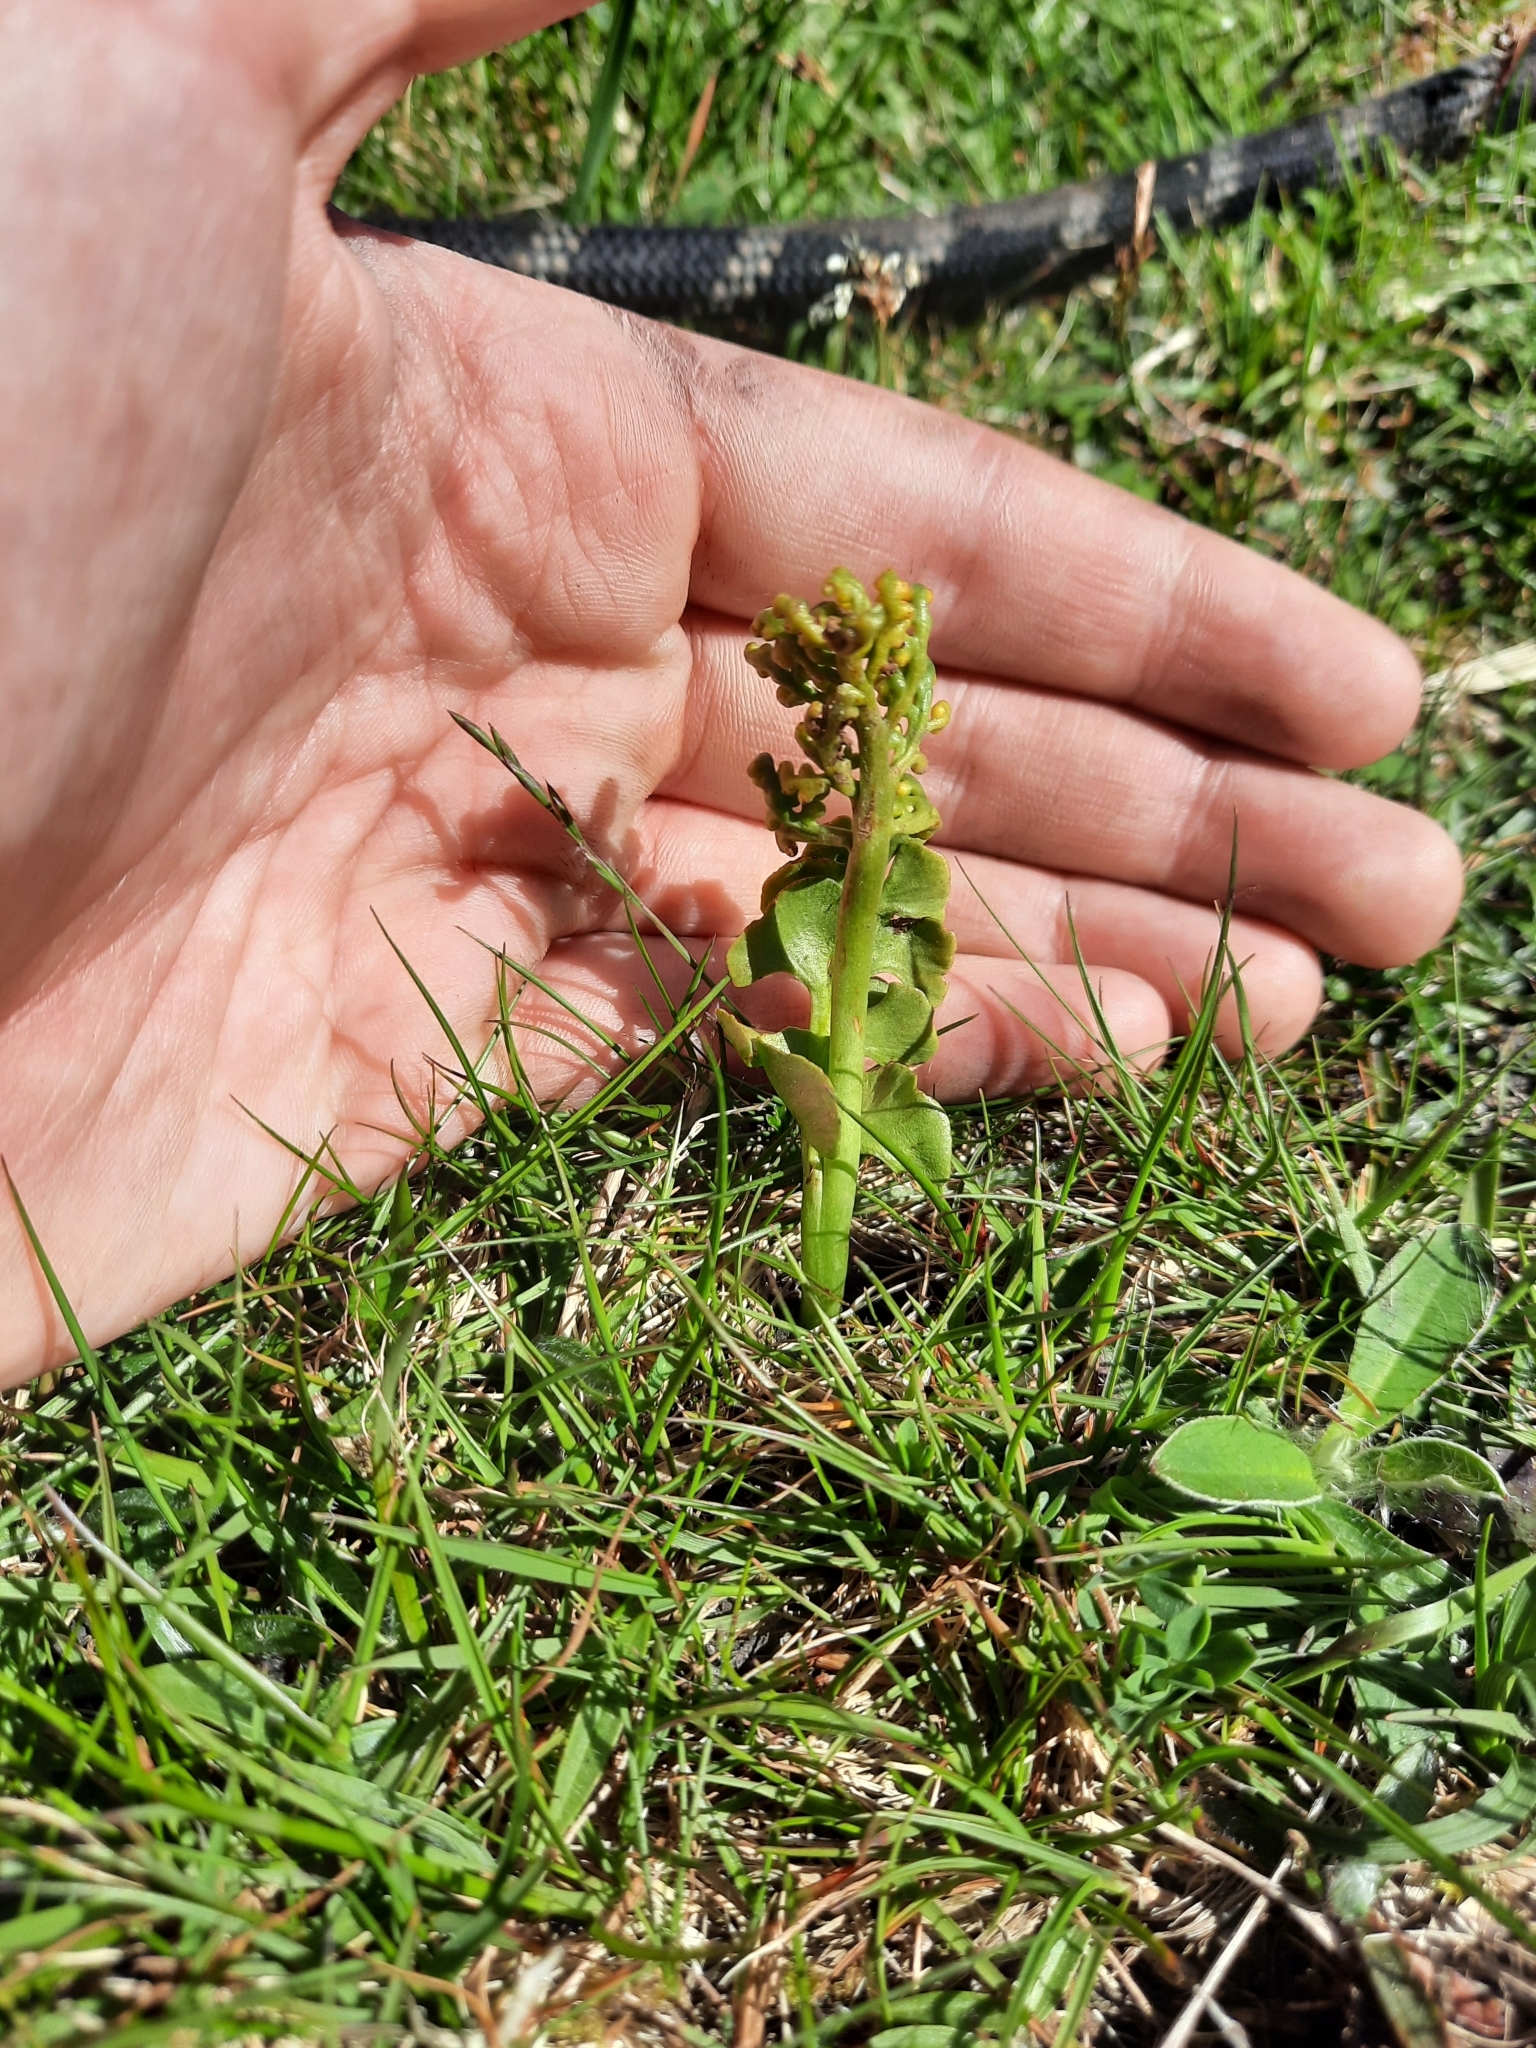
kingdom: Plantae
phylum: Tracheophyta
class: Polypodiopsida
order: Ophioglossales
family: Ophioglossaceae
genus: Botrychium
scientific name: Botrychium lunaria
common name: Moonwort
